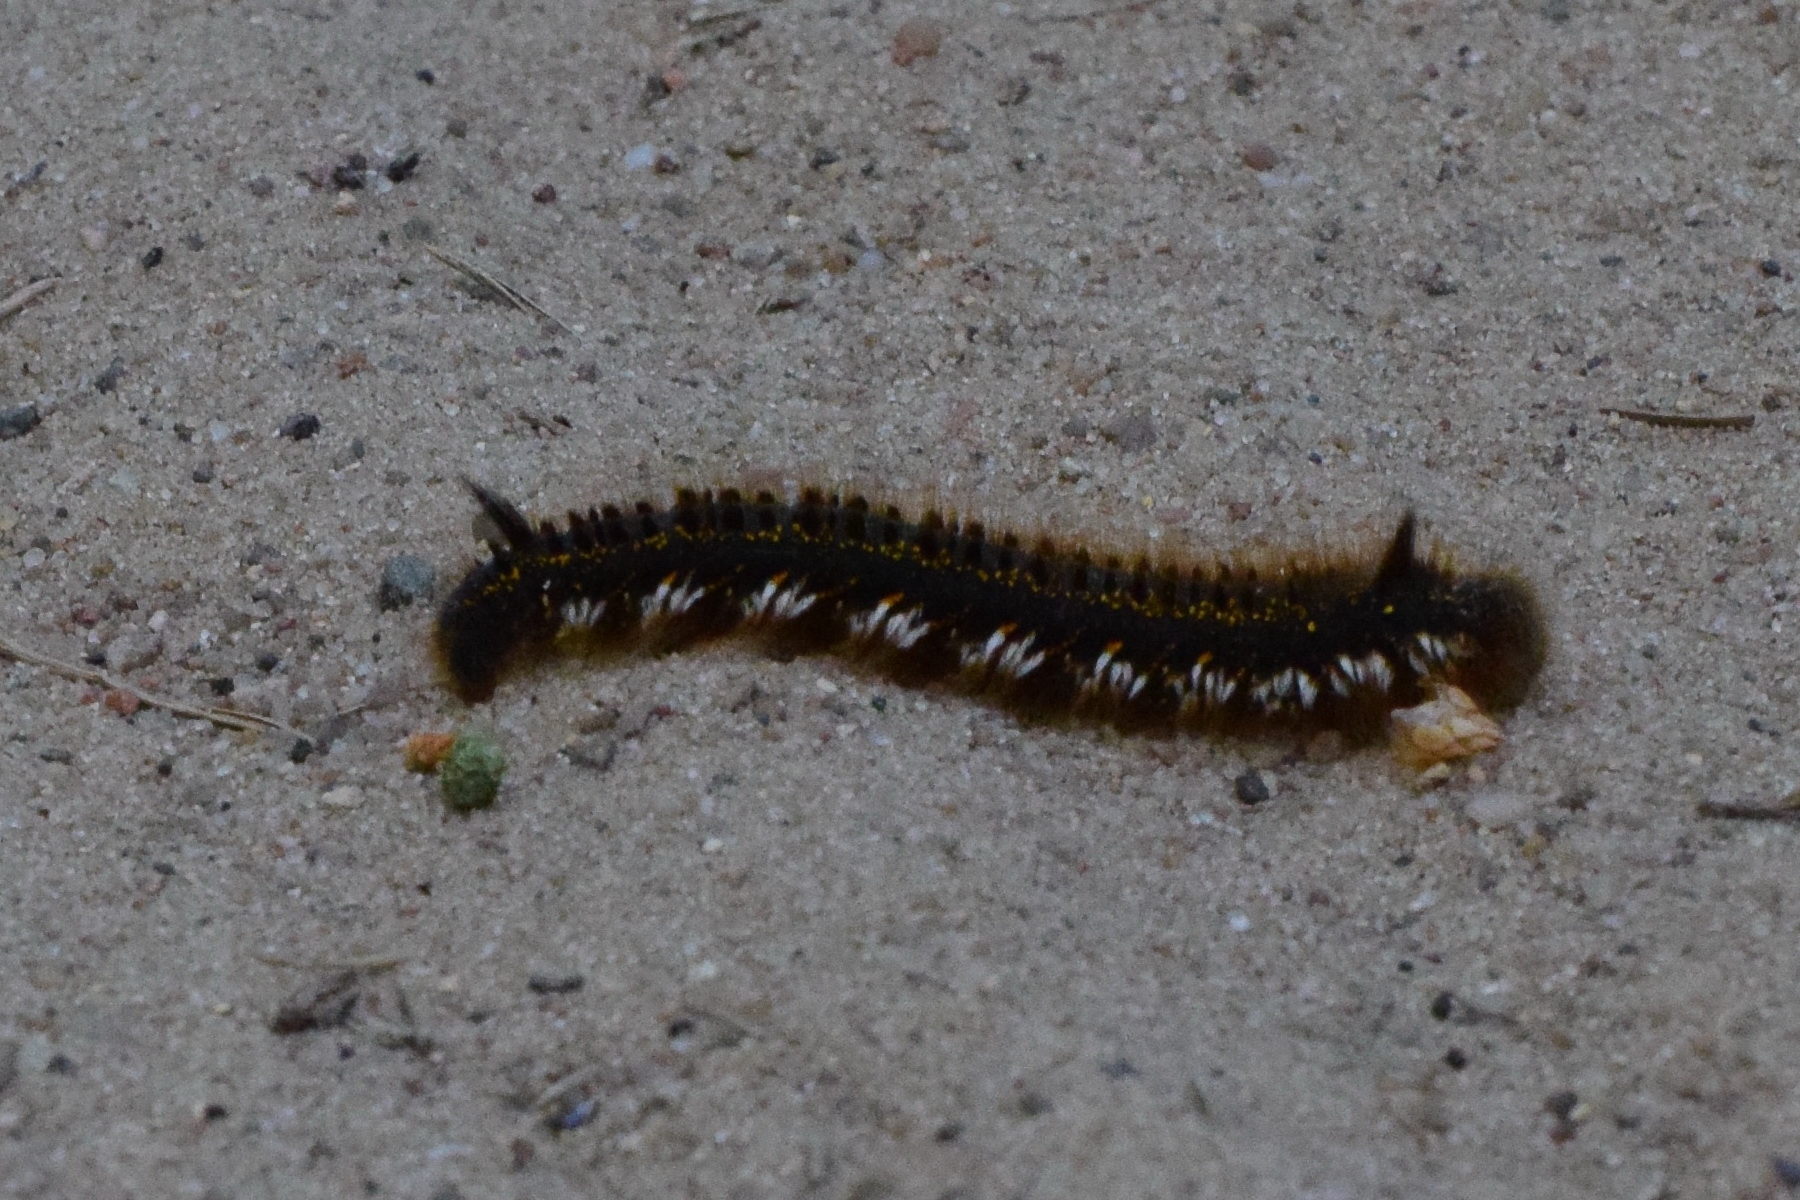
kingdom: Animalia
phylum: Arthropoda
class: Insecta
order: Lepidoptera
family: Lasiocampidae
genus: Euthrix
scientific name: Euthrix potatoria
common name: Drinker
